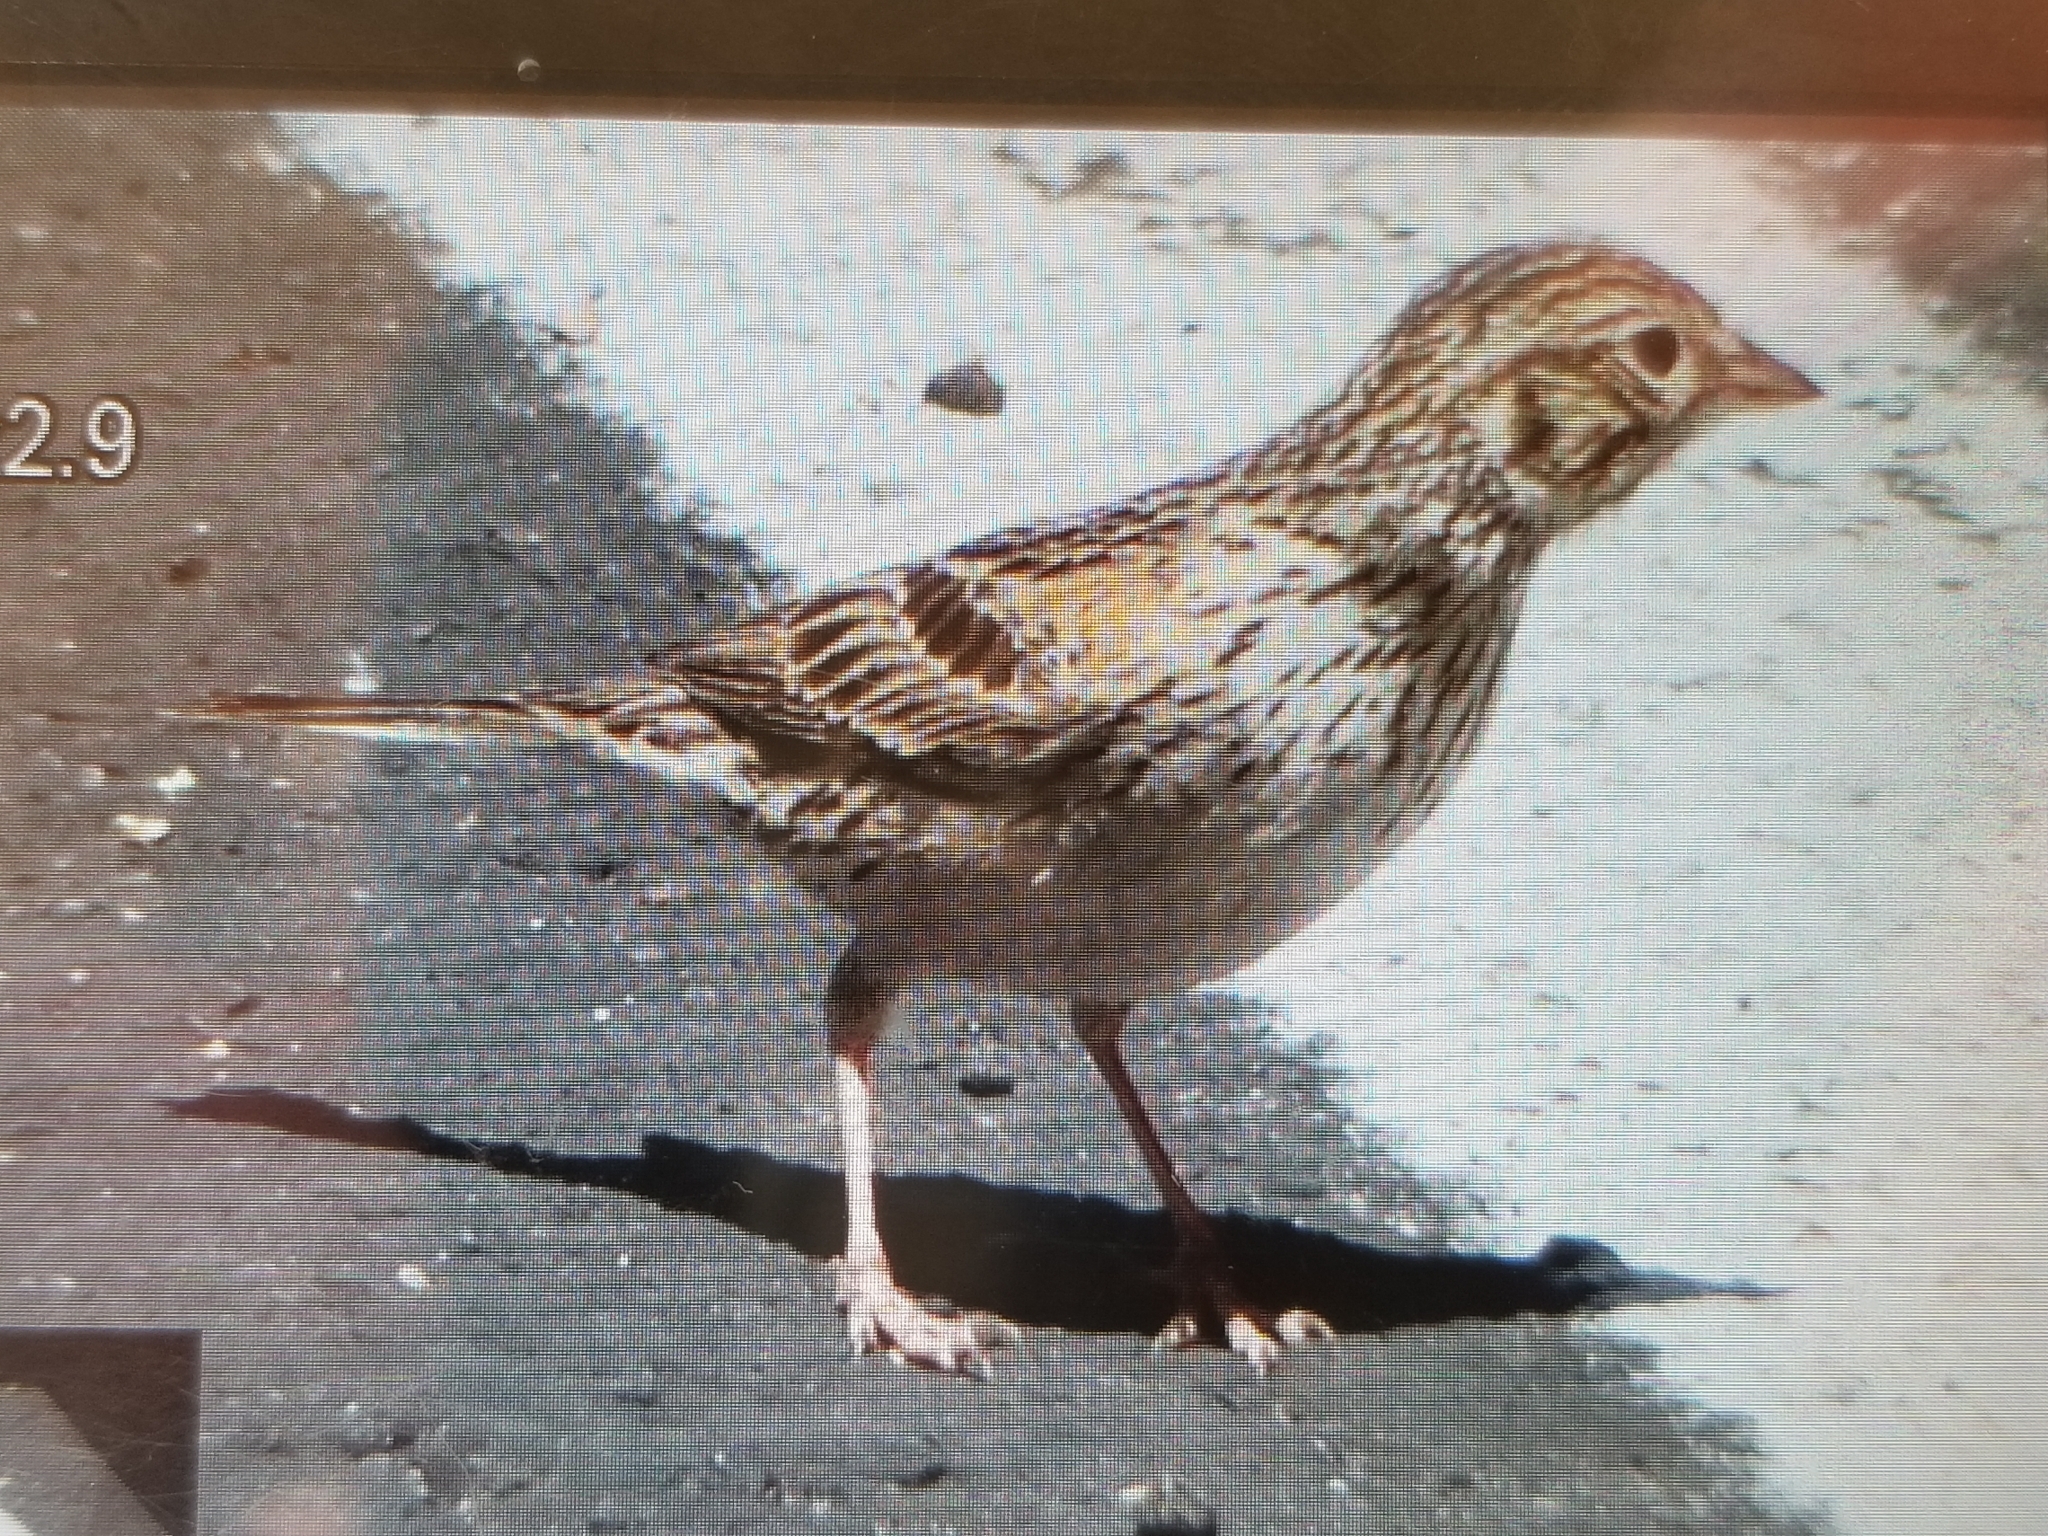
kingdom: Animalia
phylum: Chordata
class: Aves
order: Passeriformes
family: Passerellidae
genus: Pooecetes
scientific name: Pooecetes gramineus
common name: Vesper sparrow
